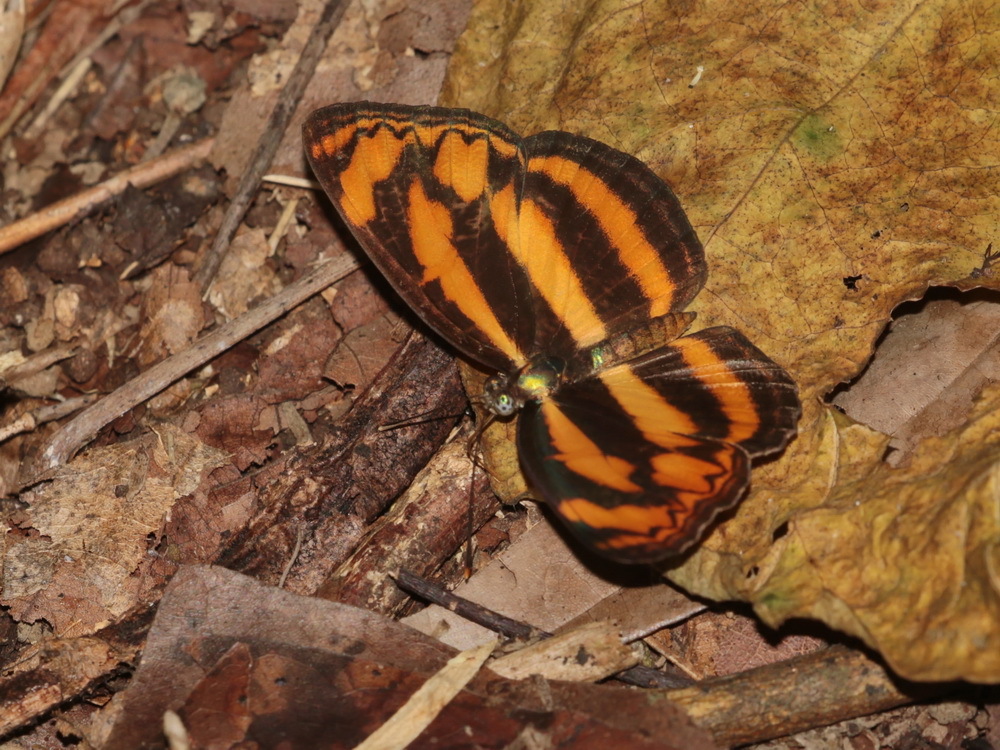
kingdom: Animalia
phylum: Arthropoda
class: Insecta
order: Lepidoptera
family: Nymphalidae
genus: Lasippa
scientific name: Lasippa heliodore
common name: Burmese lascar
